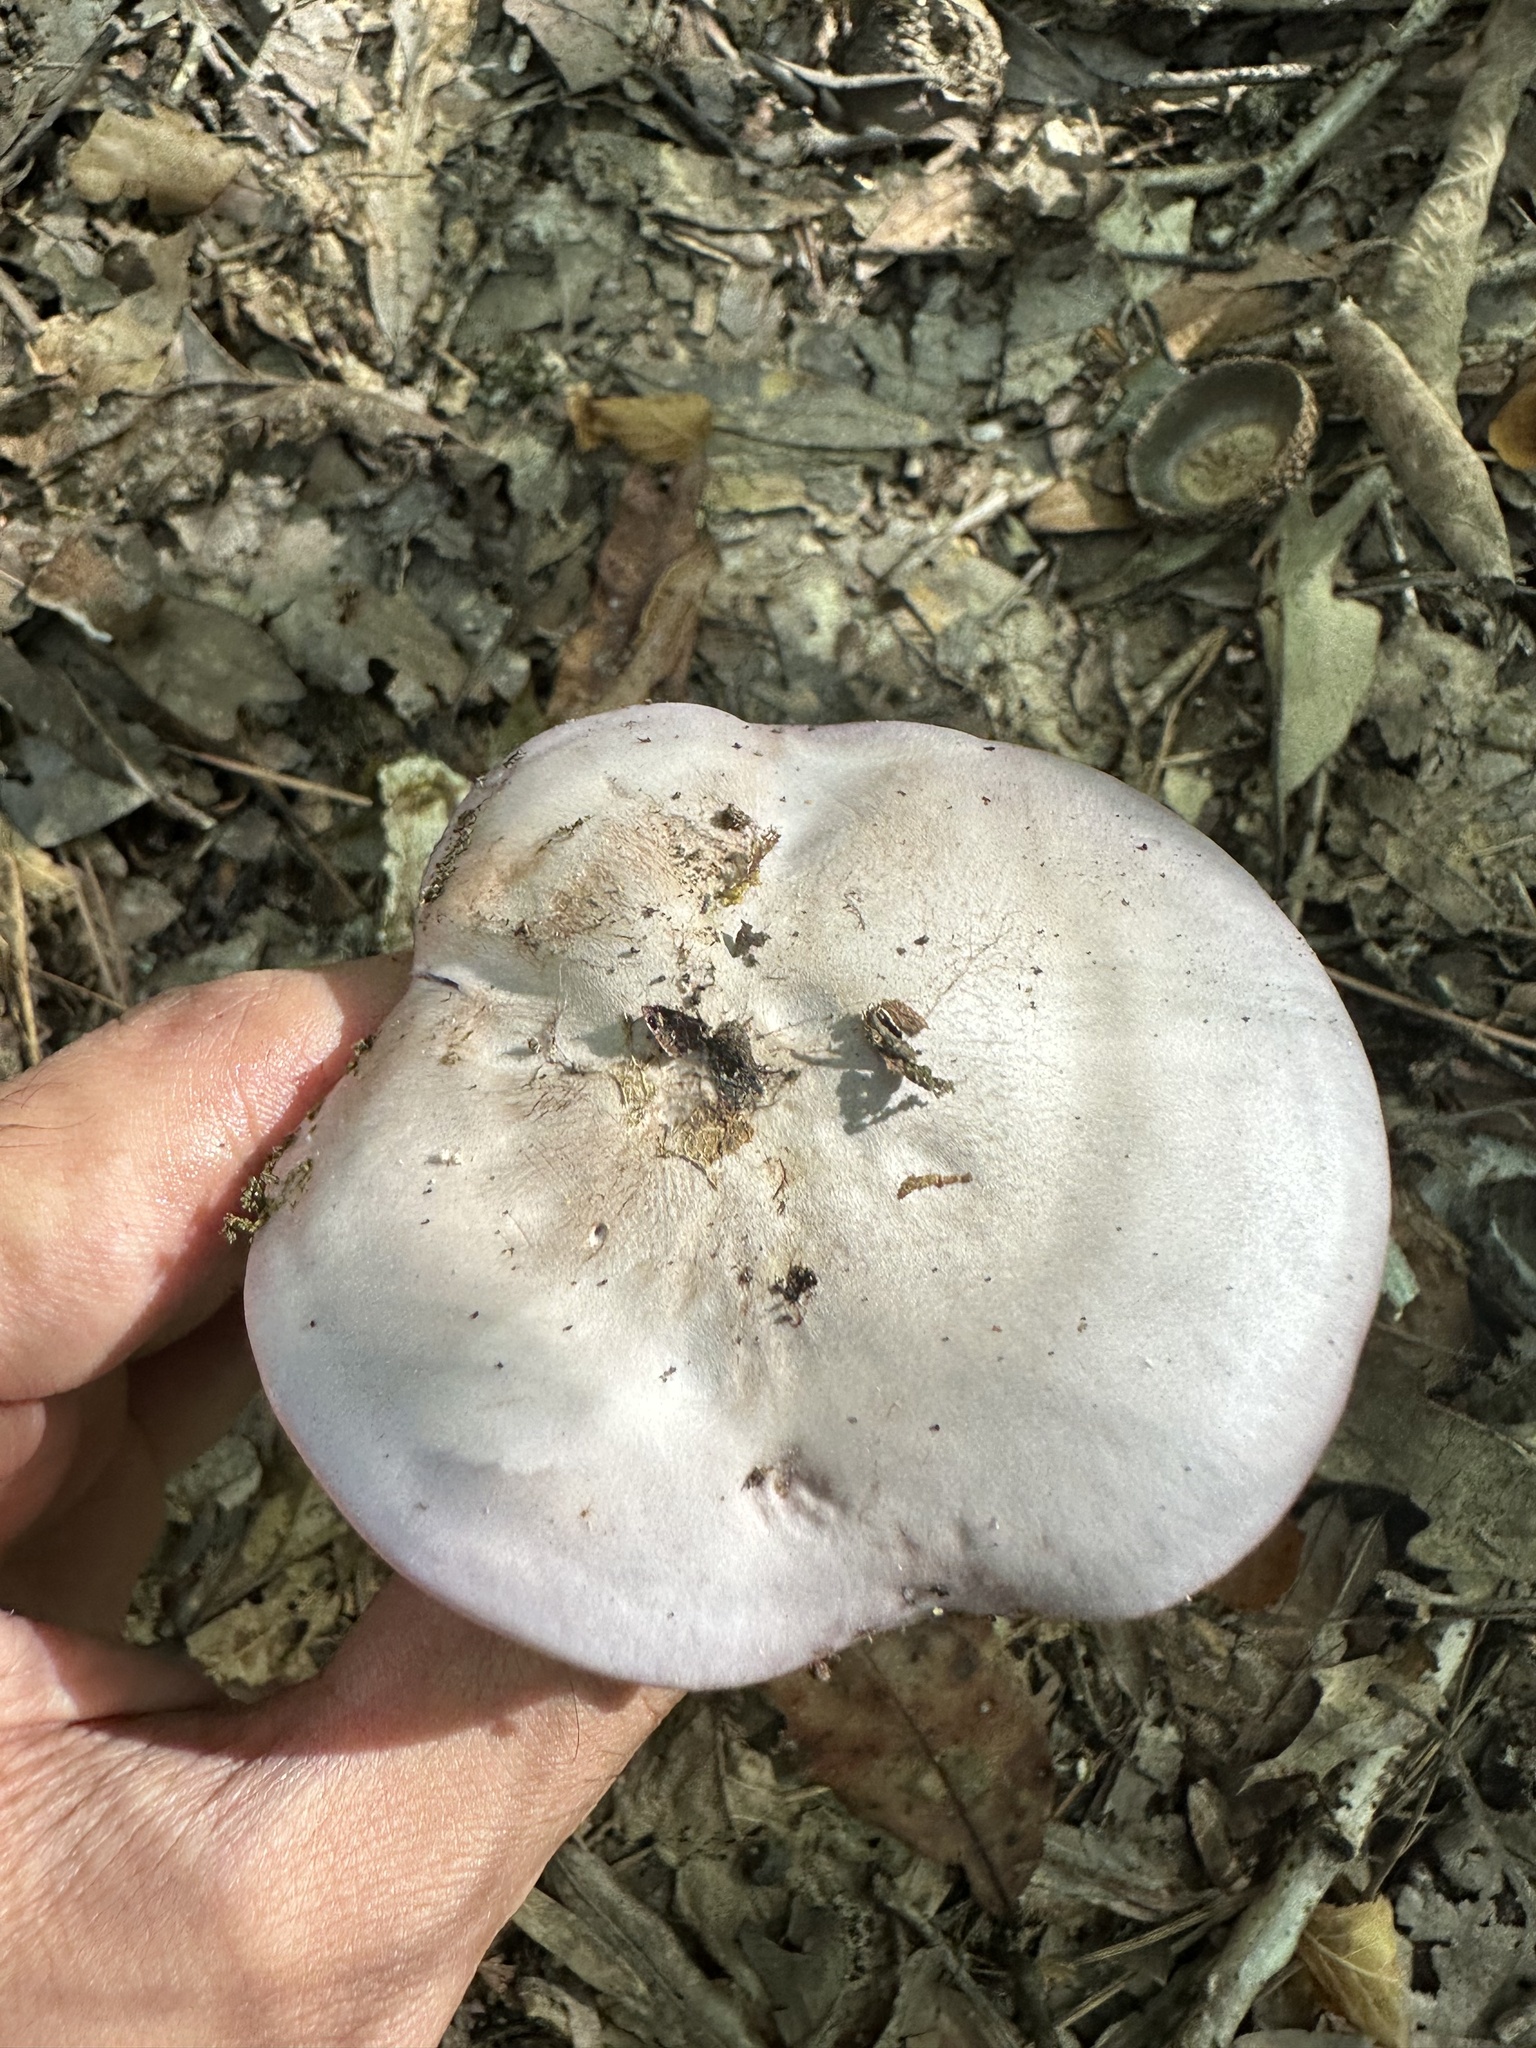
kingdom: Fungi
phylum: Basidiomycota
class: Agaricomycetes
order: Agaricales
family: Tricholomataceae
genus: Collybia
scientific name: Collybia
